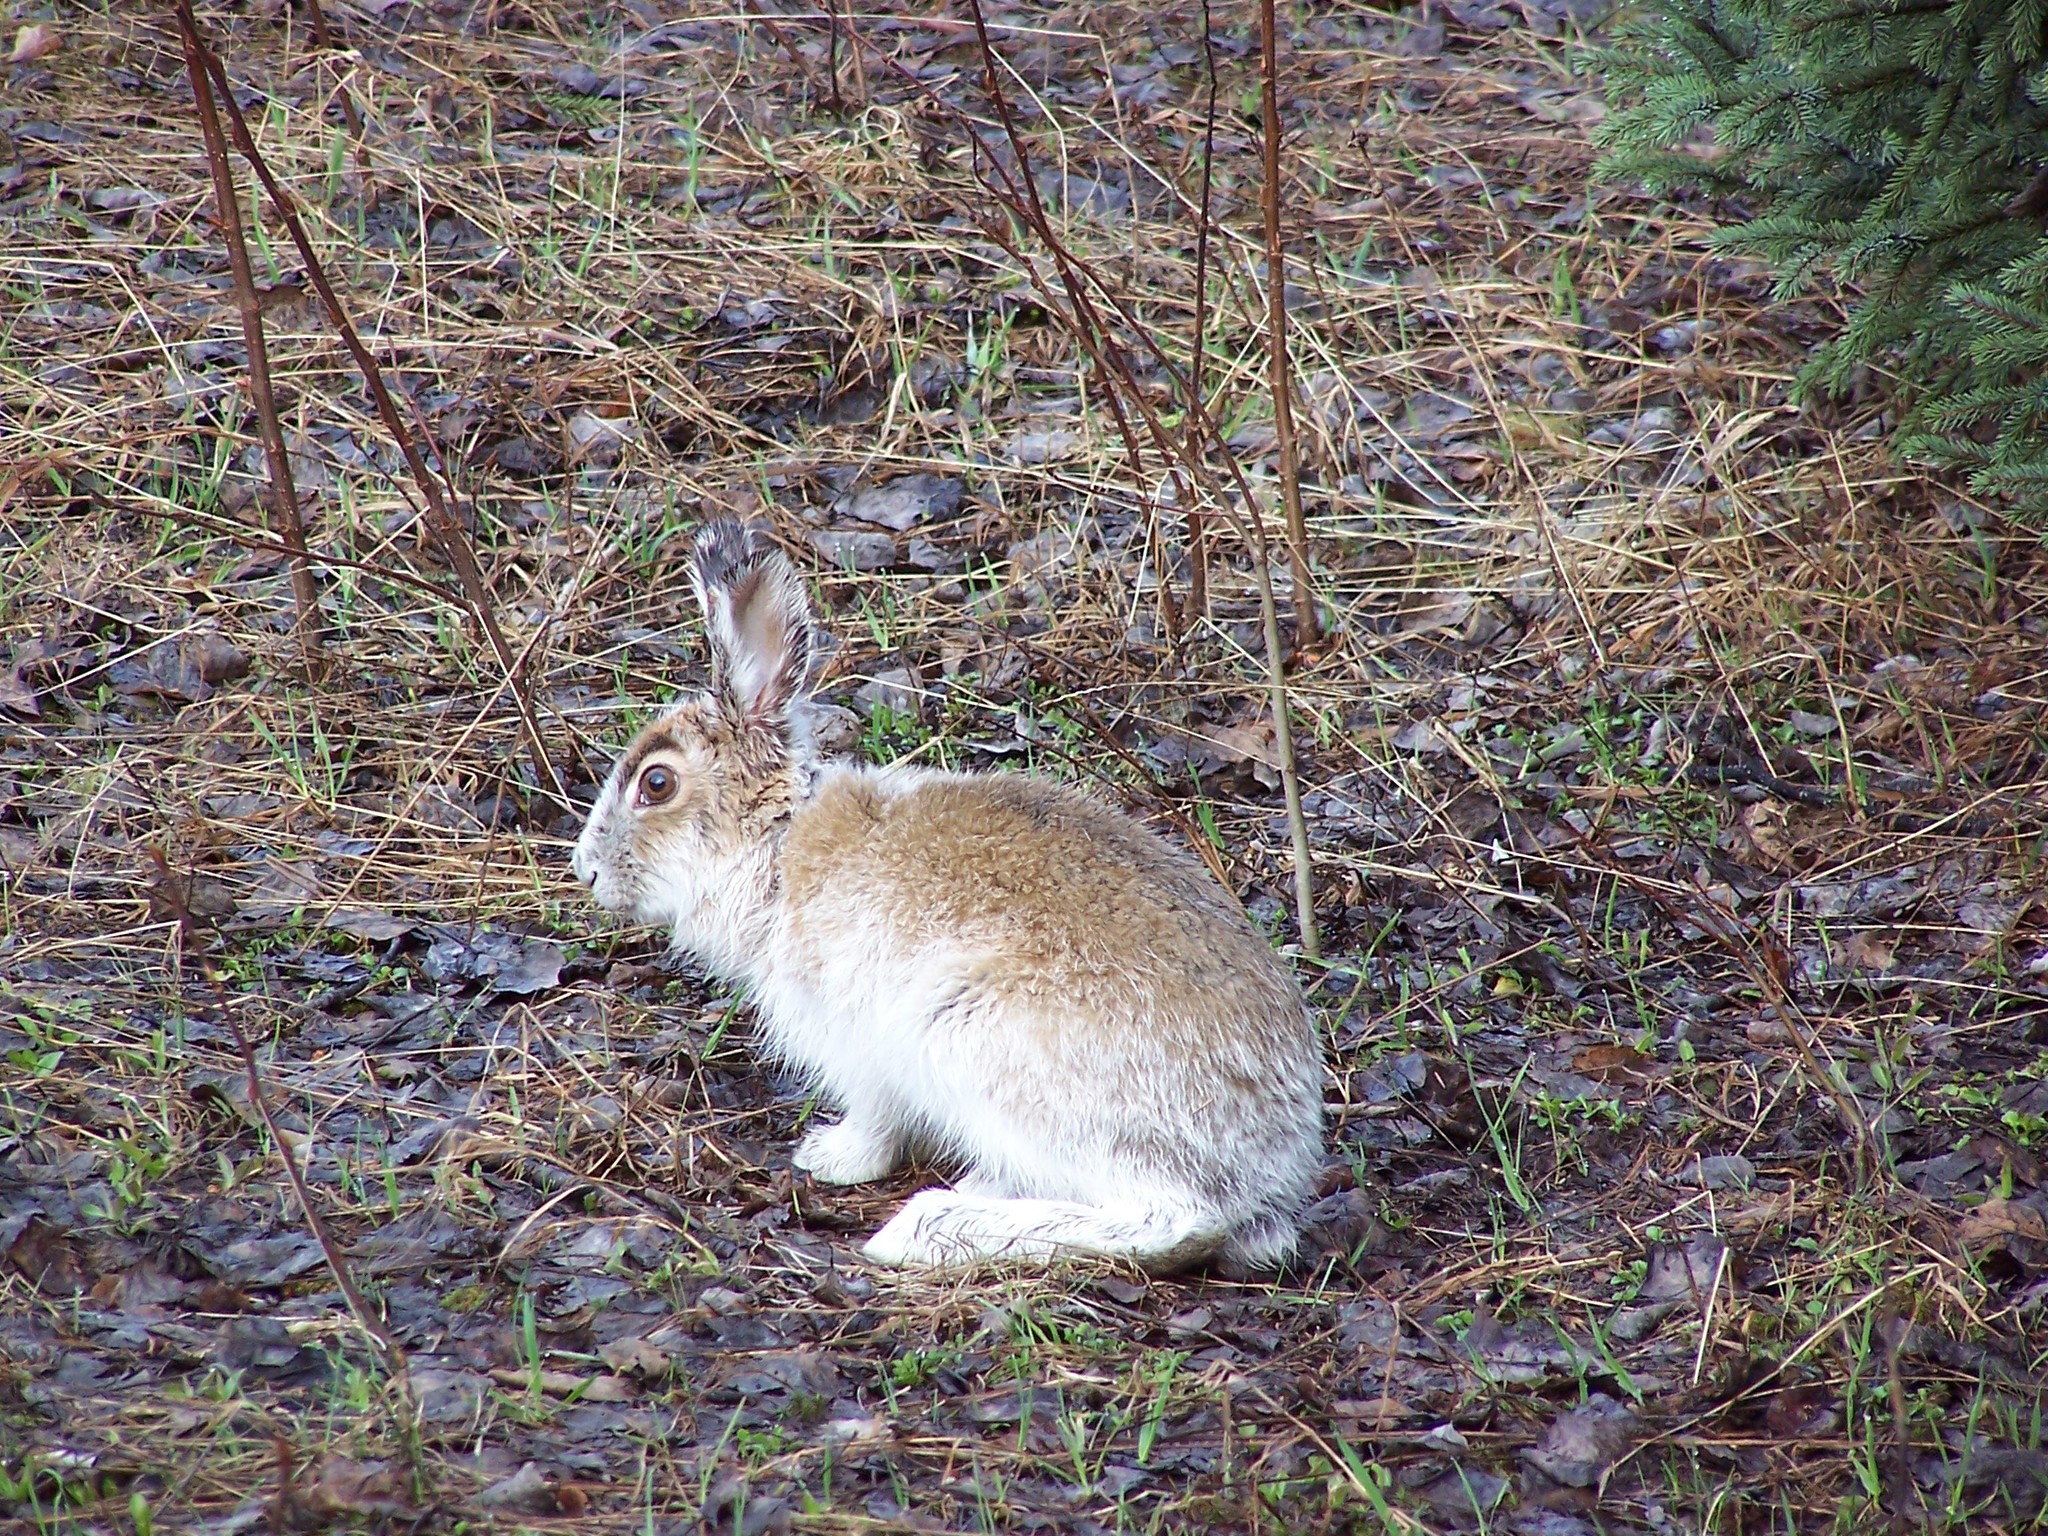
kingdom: Animalia
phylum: Chordata
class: Mammalia
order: Lagomorpha
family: Leporidae
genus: Lepus
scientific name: Lepus americanus
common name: Snowshoe hare
